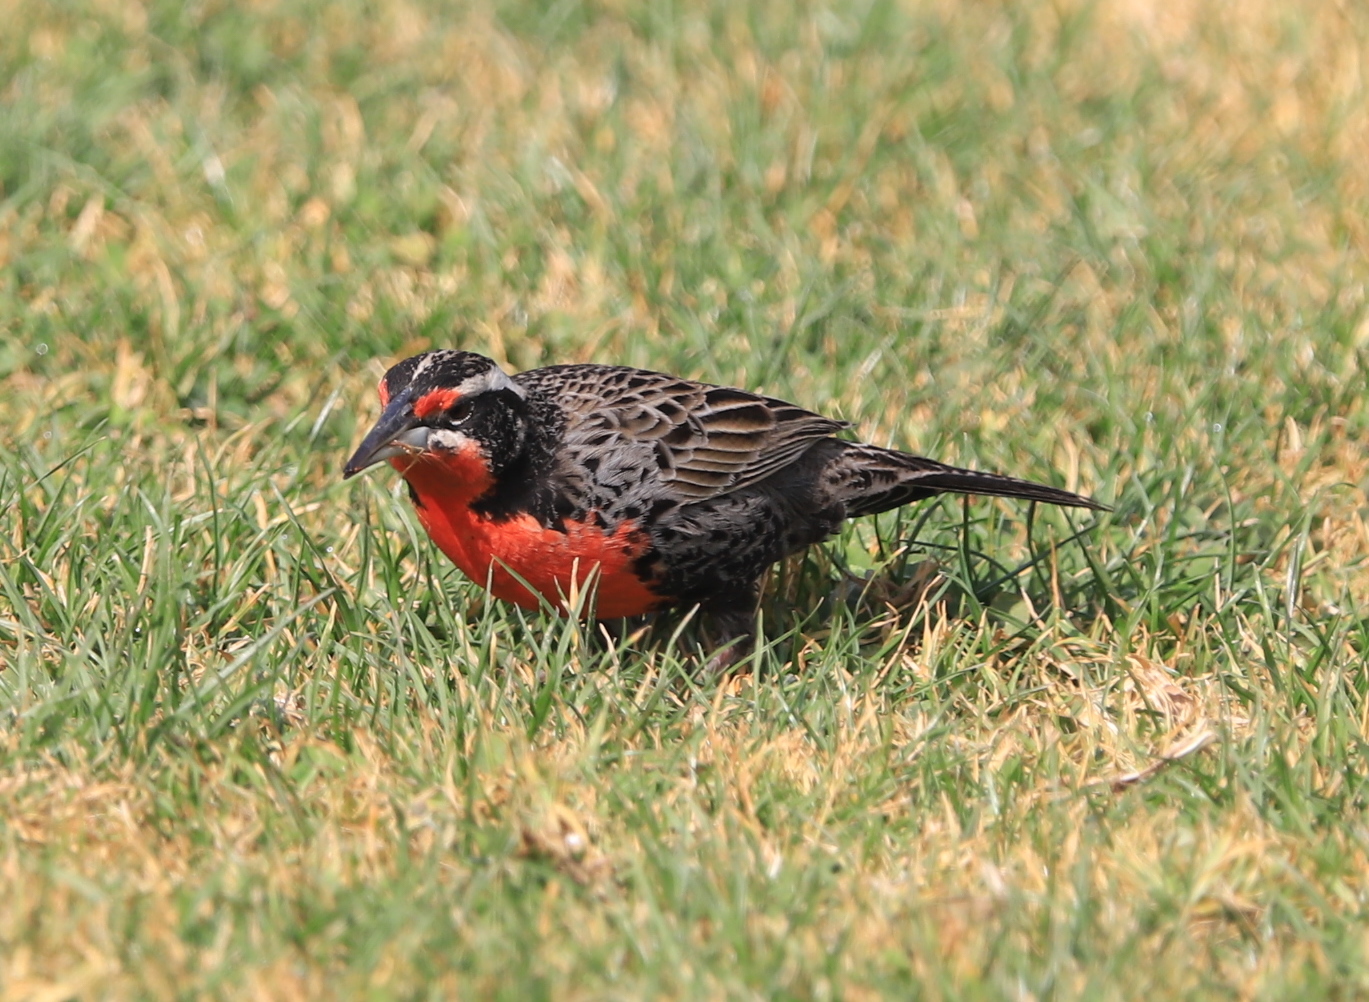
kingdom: Animalia
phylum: Chordata
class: Aves
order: Passeriformes
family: Icteridae
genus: Sturnella
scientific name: Sturnella loyca
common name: Long-tailed meadowlark
